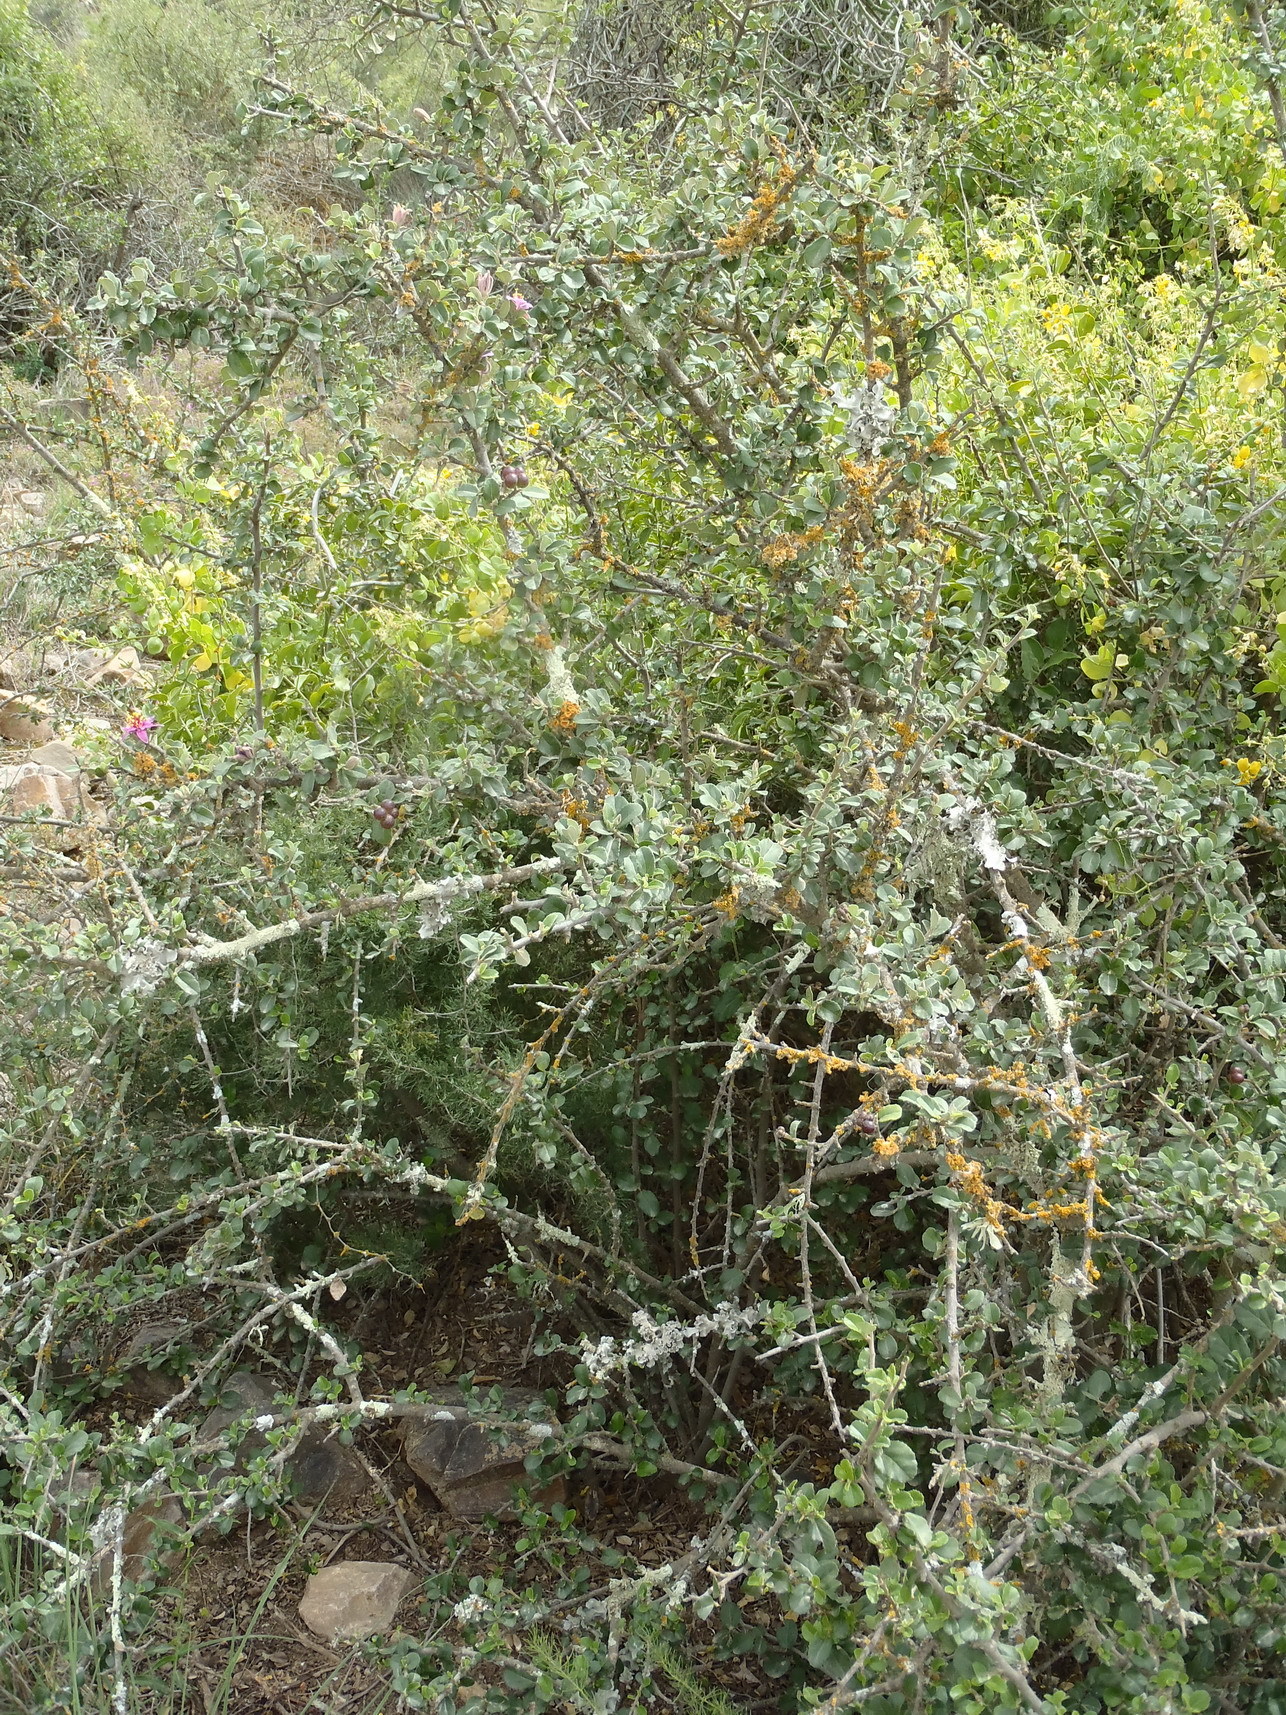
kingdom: Plantae
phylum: Tracheophyta
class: Magnoliopsida
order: Malvales
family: Malvaceae
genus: Grewia
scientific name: Grewia robusta
